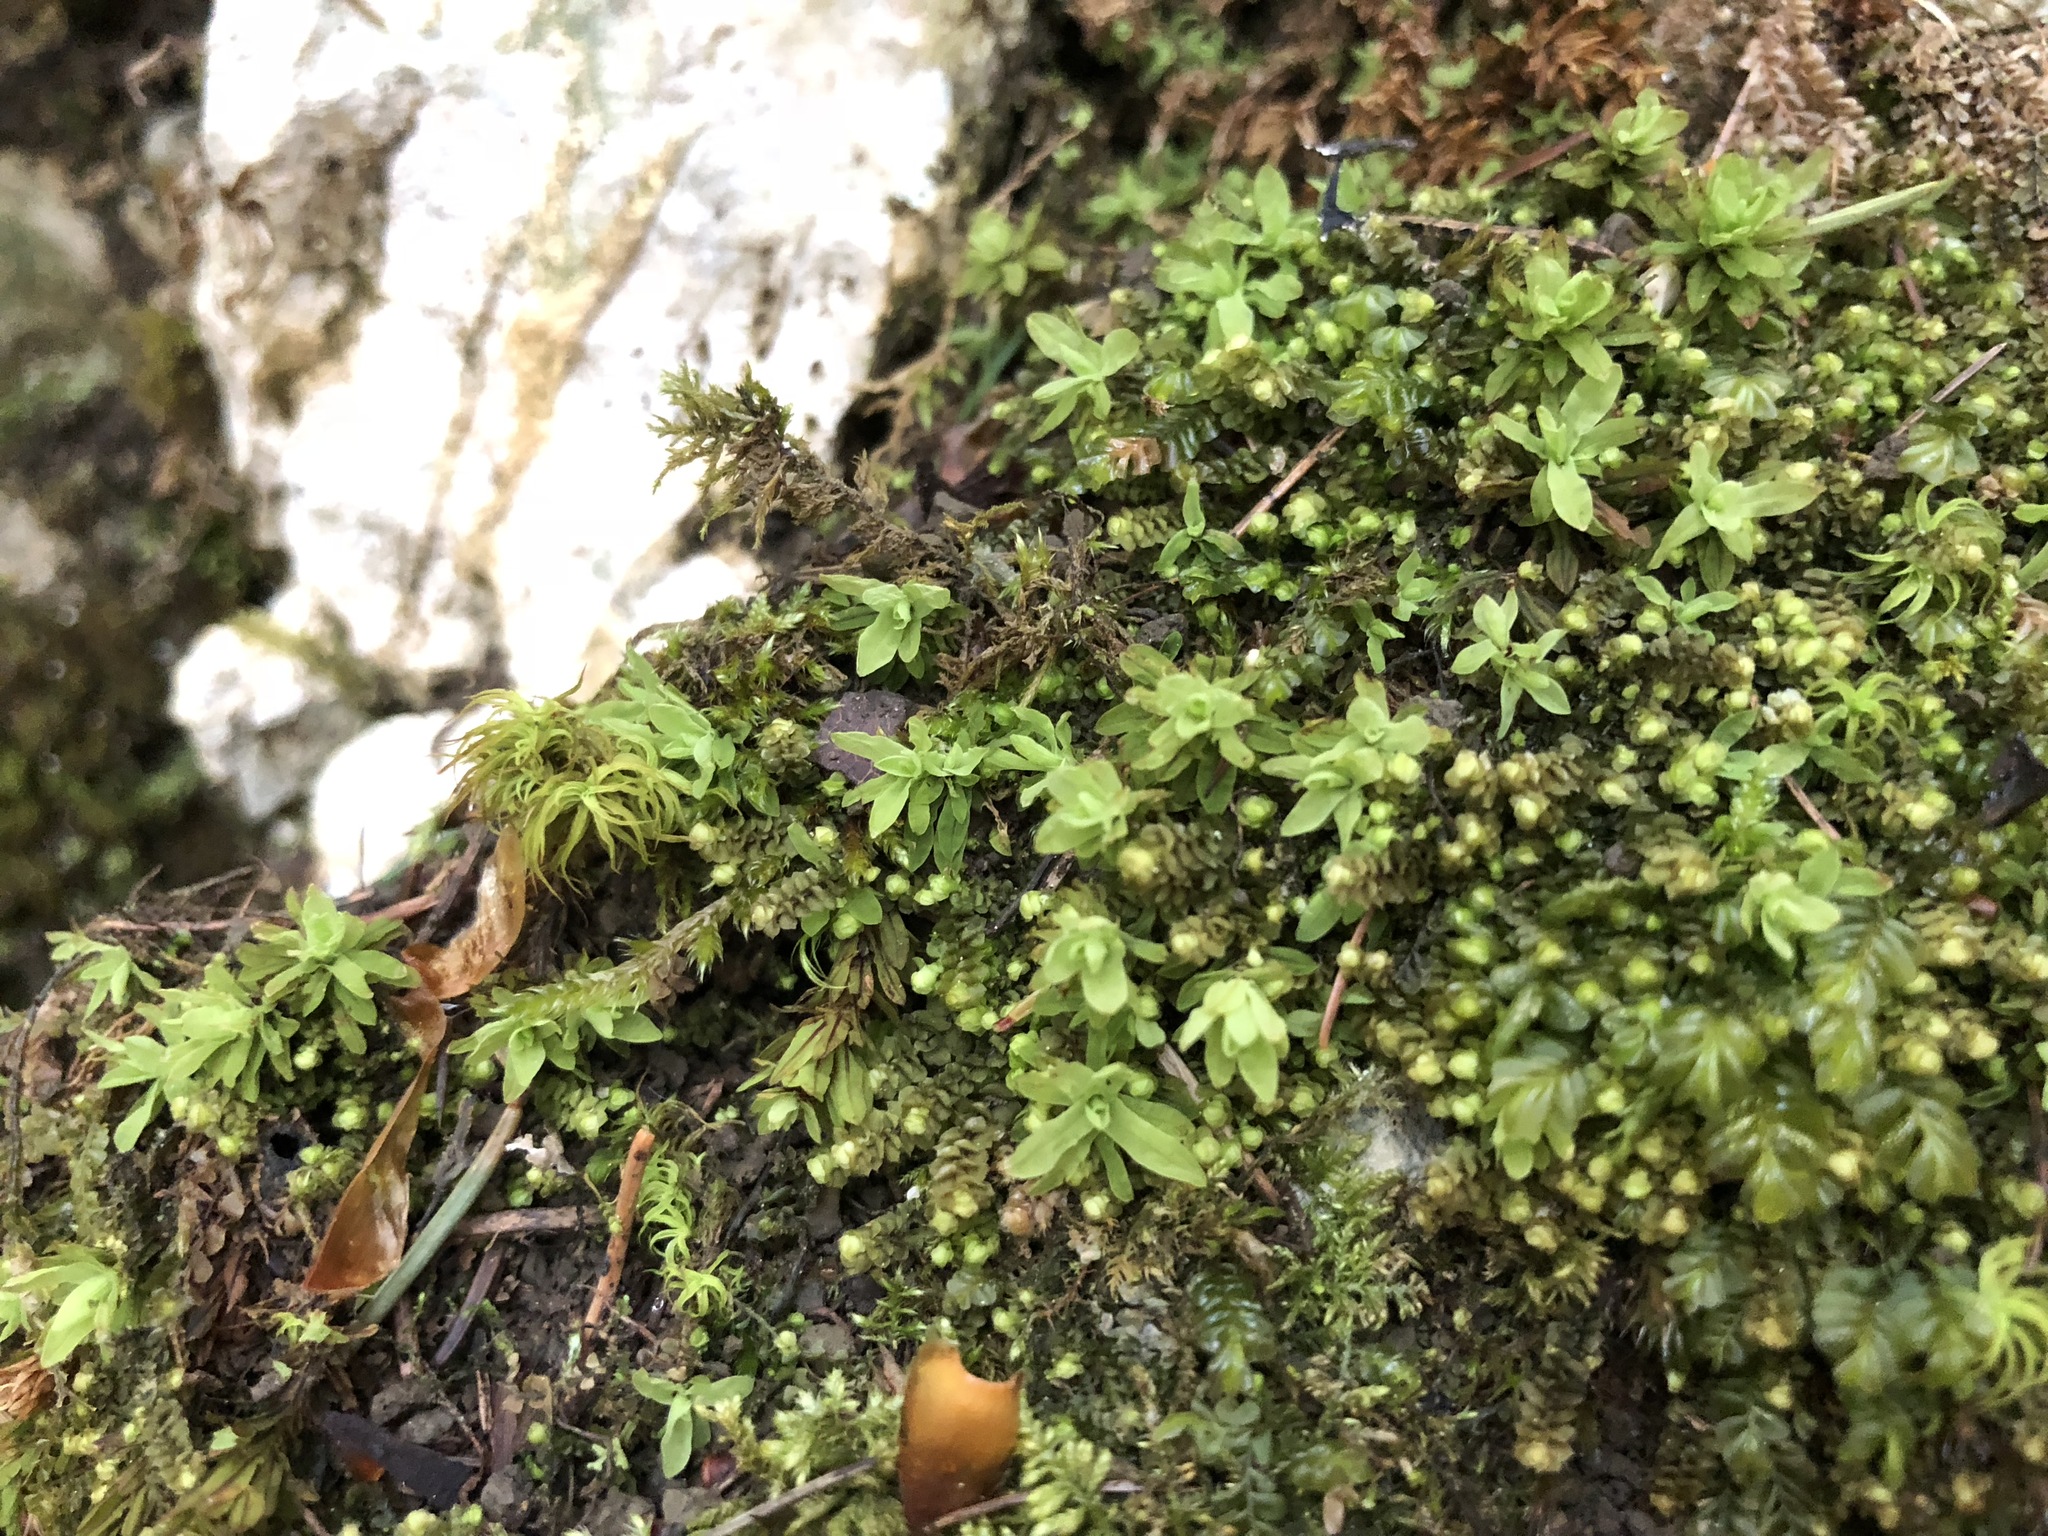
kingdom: Plantae
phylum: Bryophyta
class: Bryopsida
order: Encalyptales
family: Encalyptaceae
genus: Encalypta
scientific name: Encalypta streptocarpa
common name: Spiral extinguisher-moss
